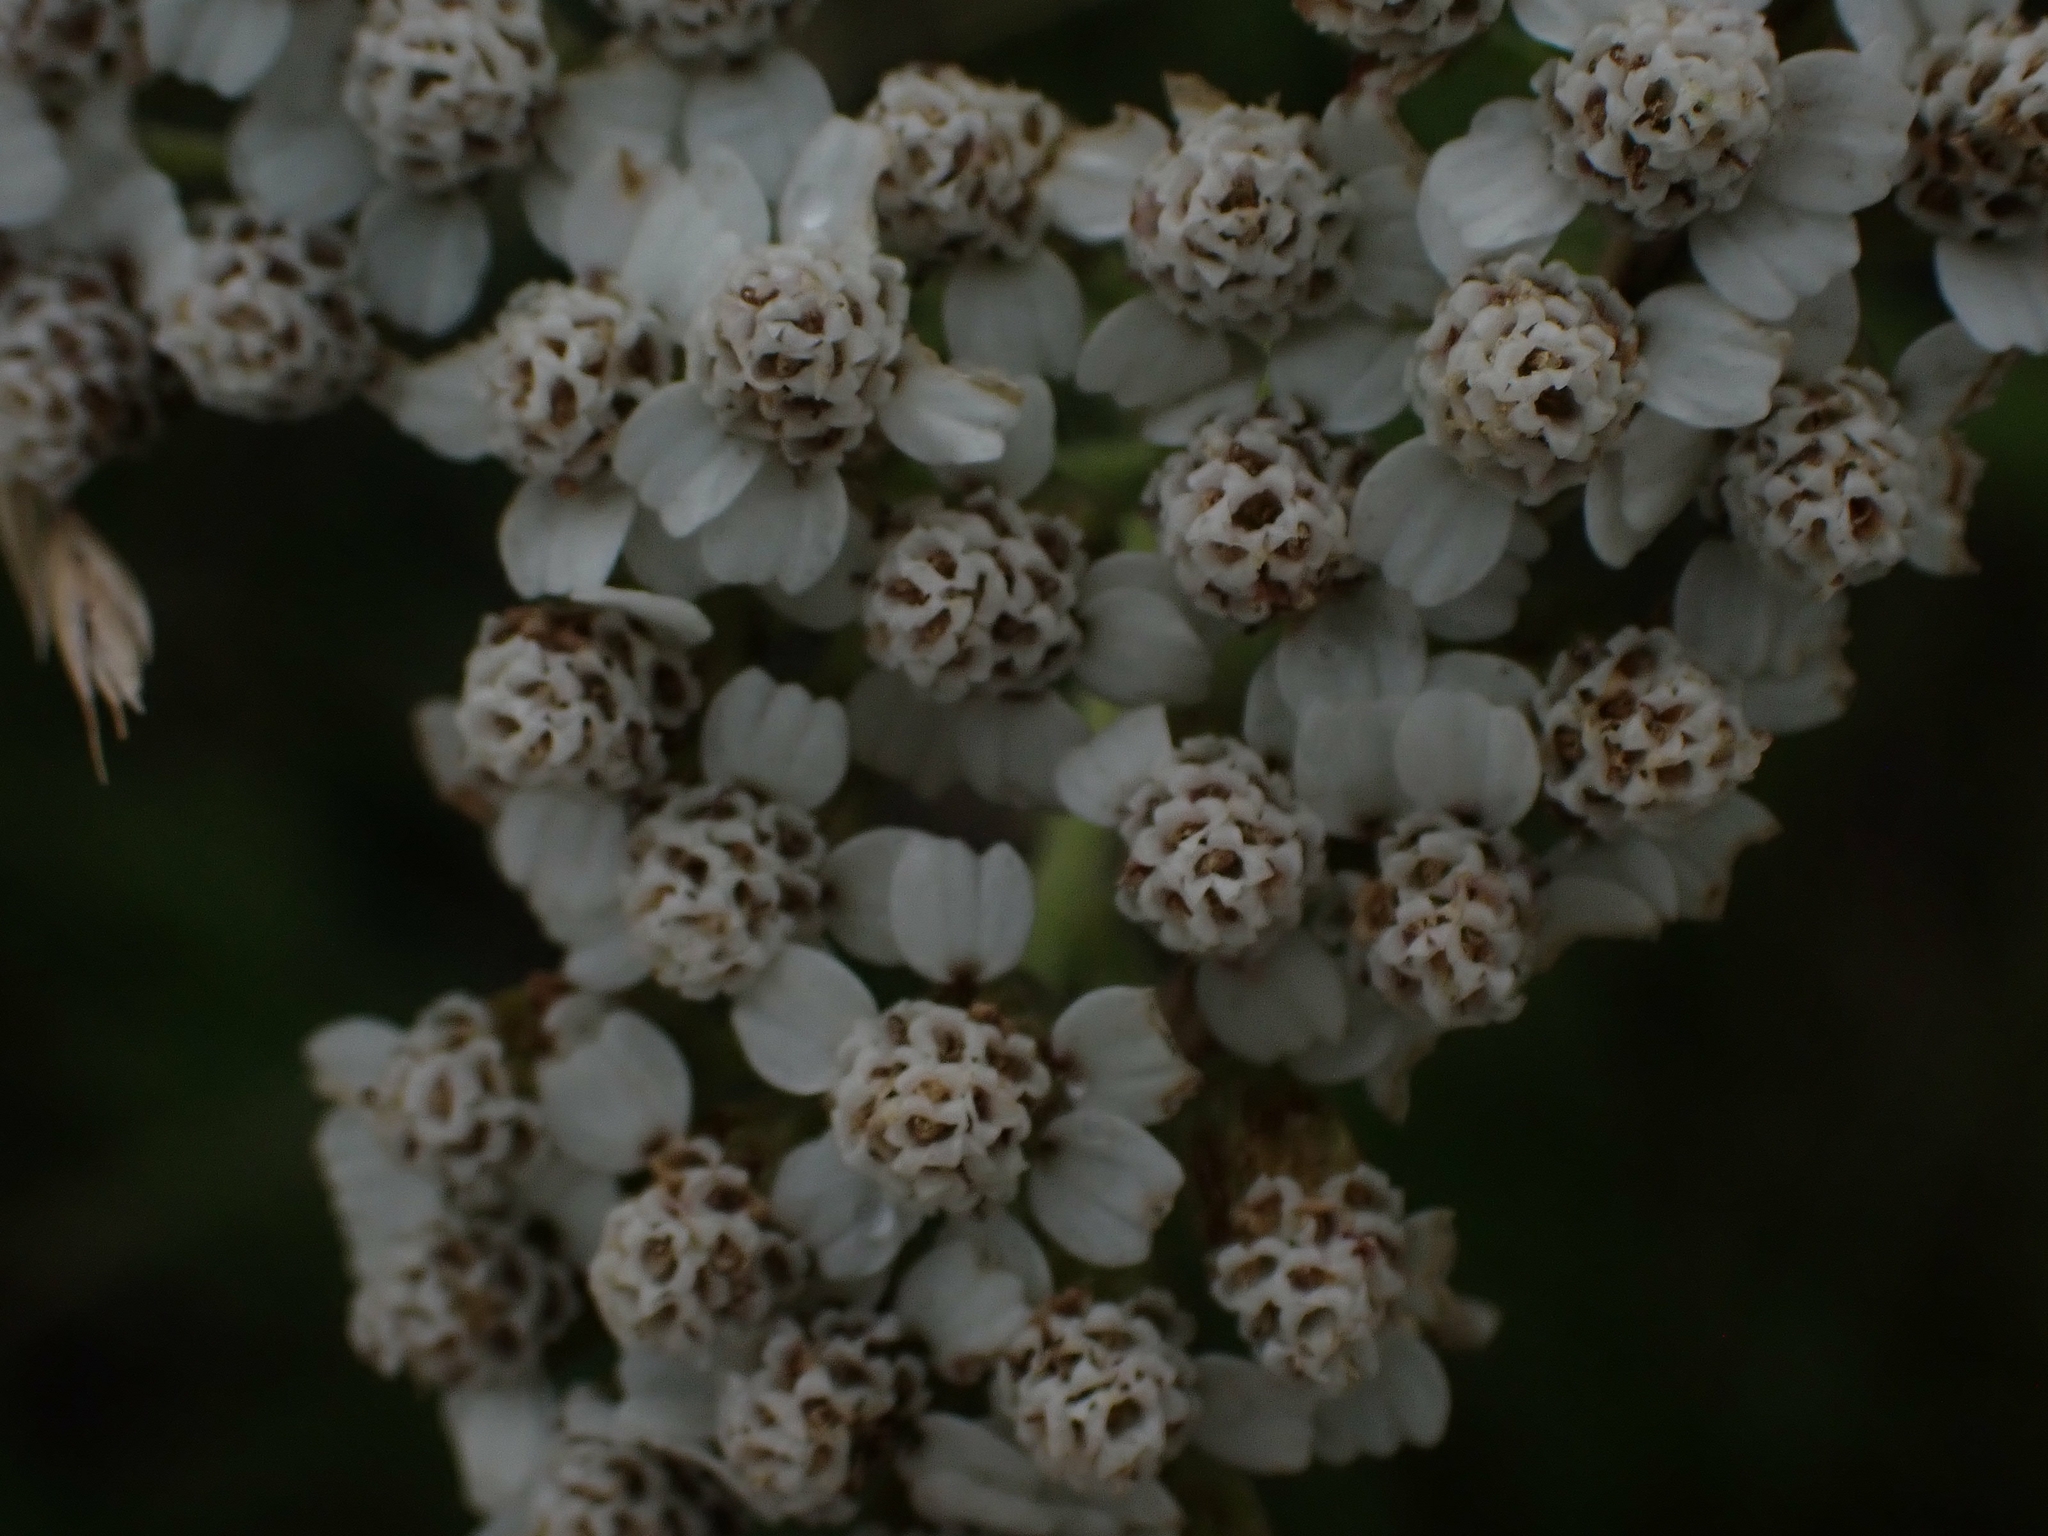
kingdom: Plantae
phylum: Tracheophyta
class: Magnoliopsida
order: Asterales
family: Asteraceae
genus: Achillea
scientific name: Achillea millefolium
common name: Yarrow
